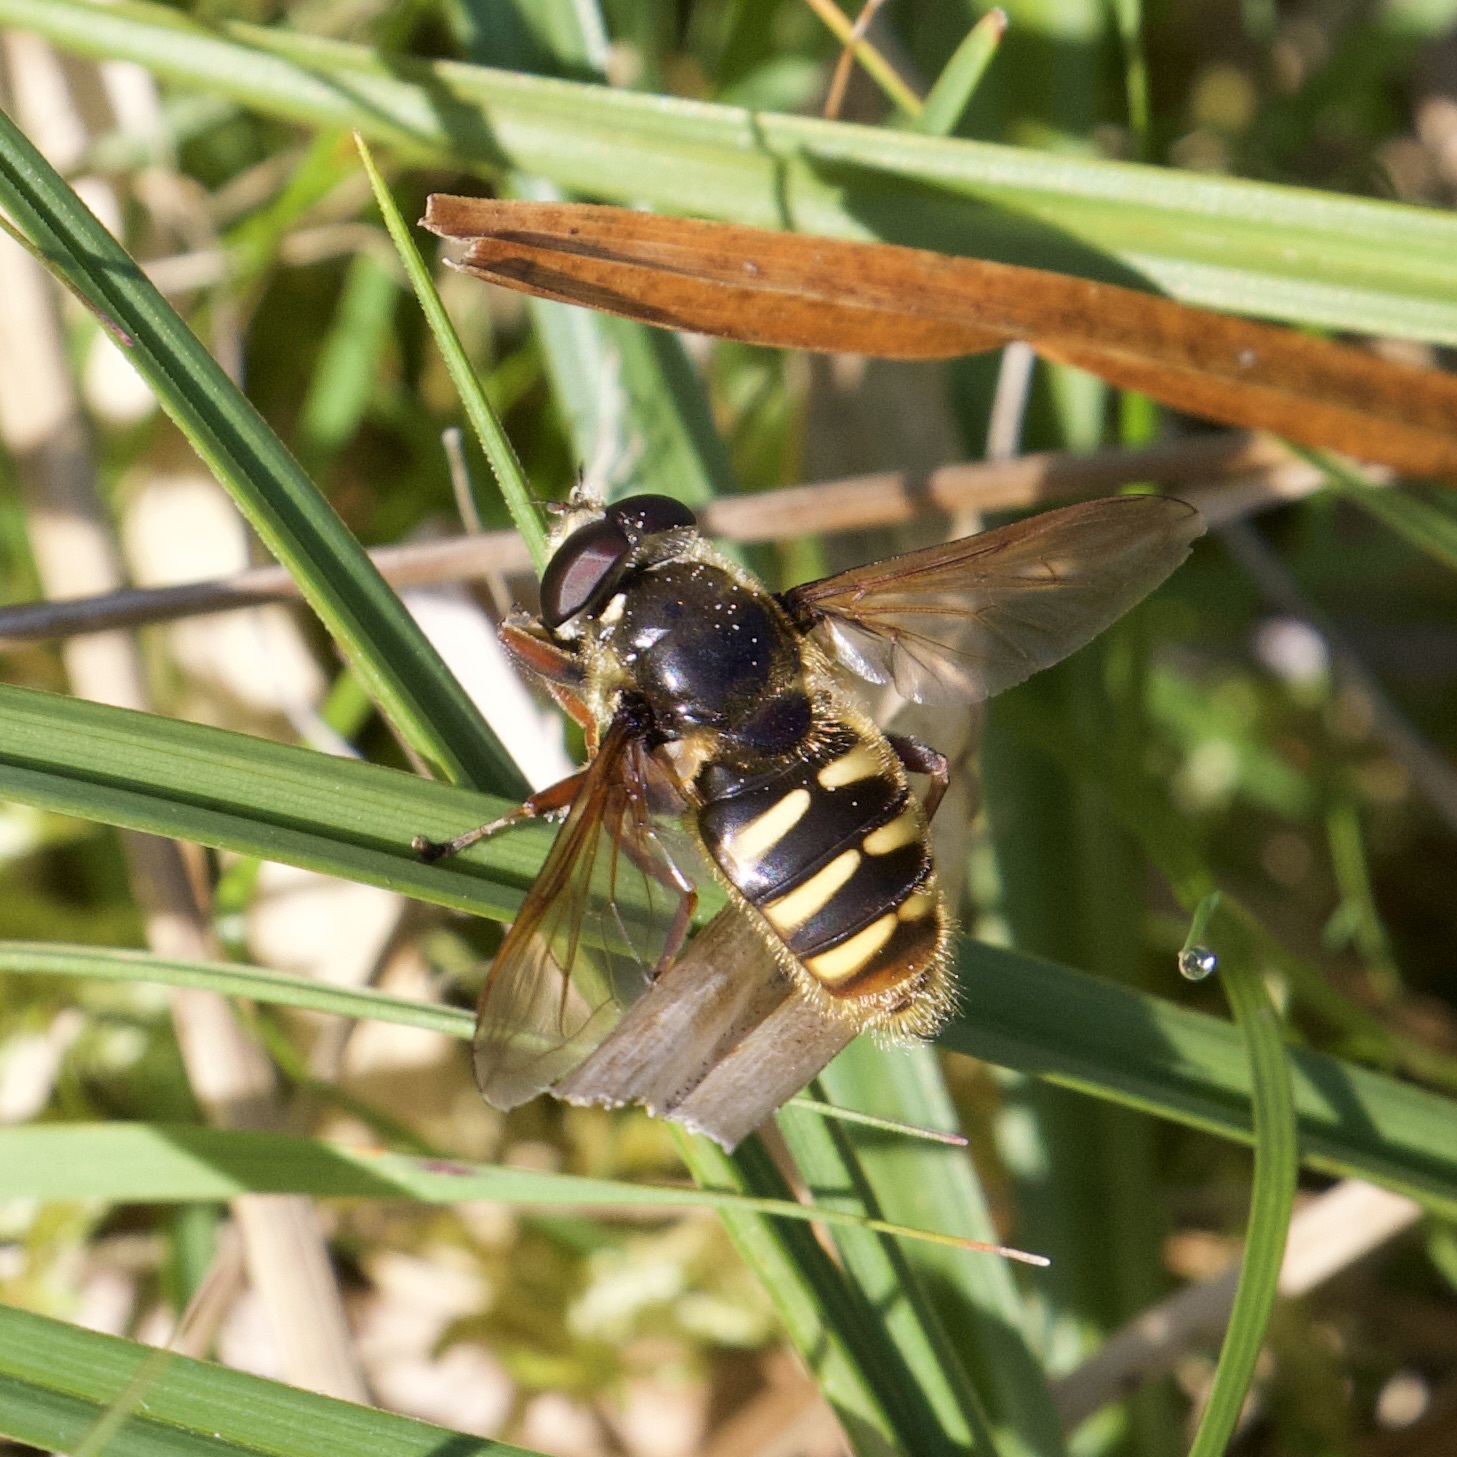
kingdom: Animalia
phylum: Arthropoda
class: Insecta
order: Diptera
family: Syrphidae
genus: Sericomyia
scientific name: Sericomyia silentis
